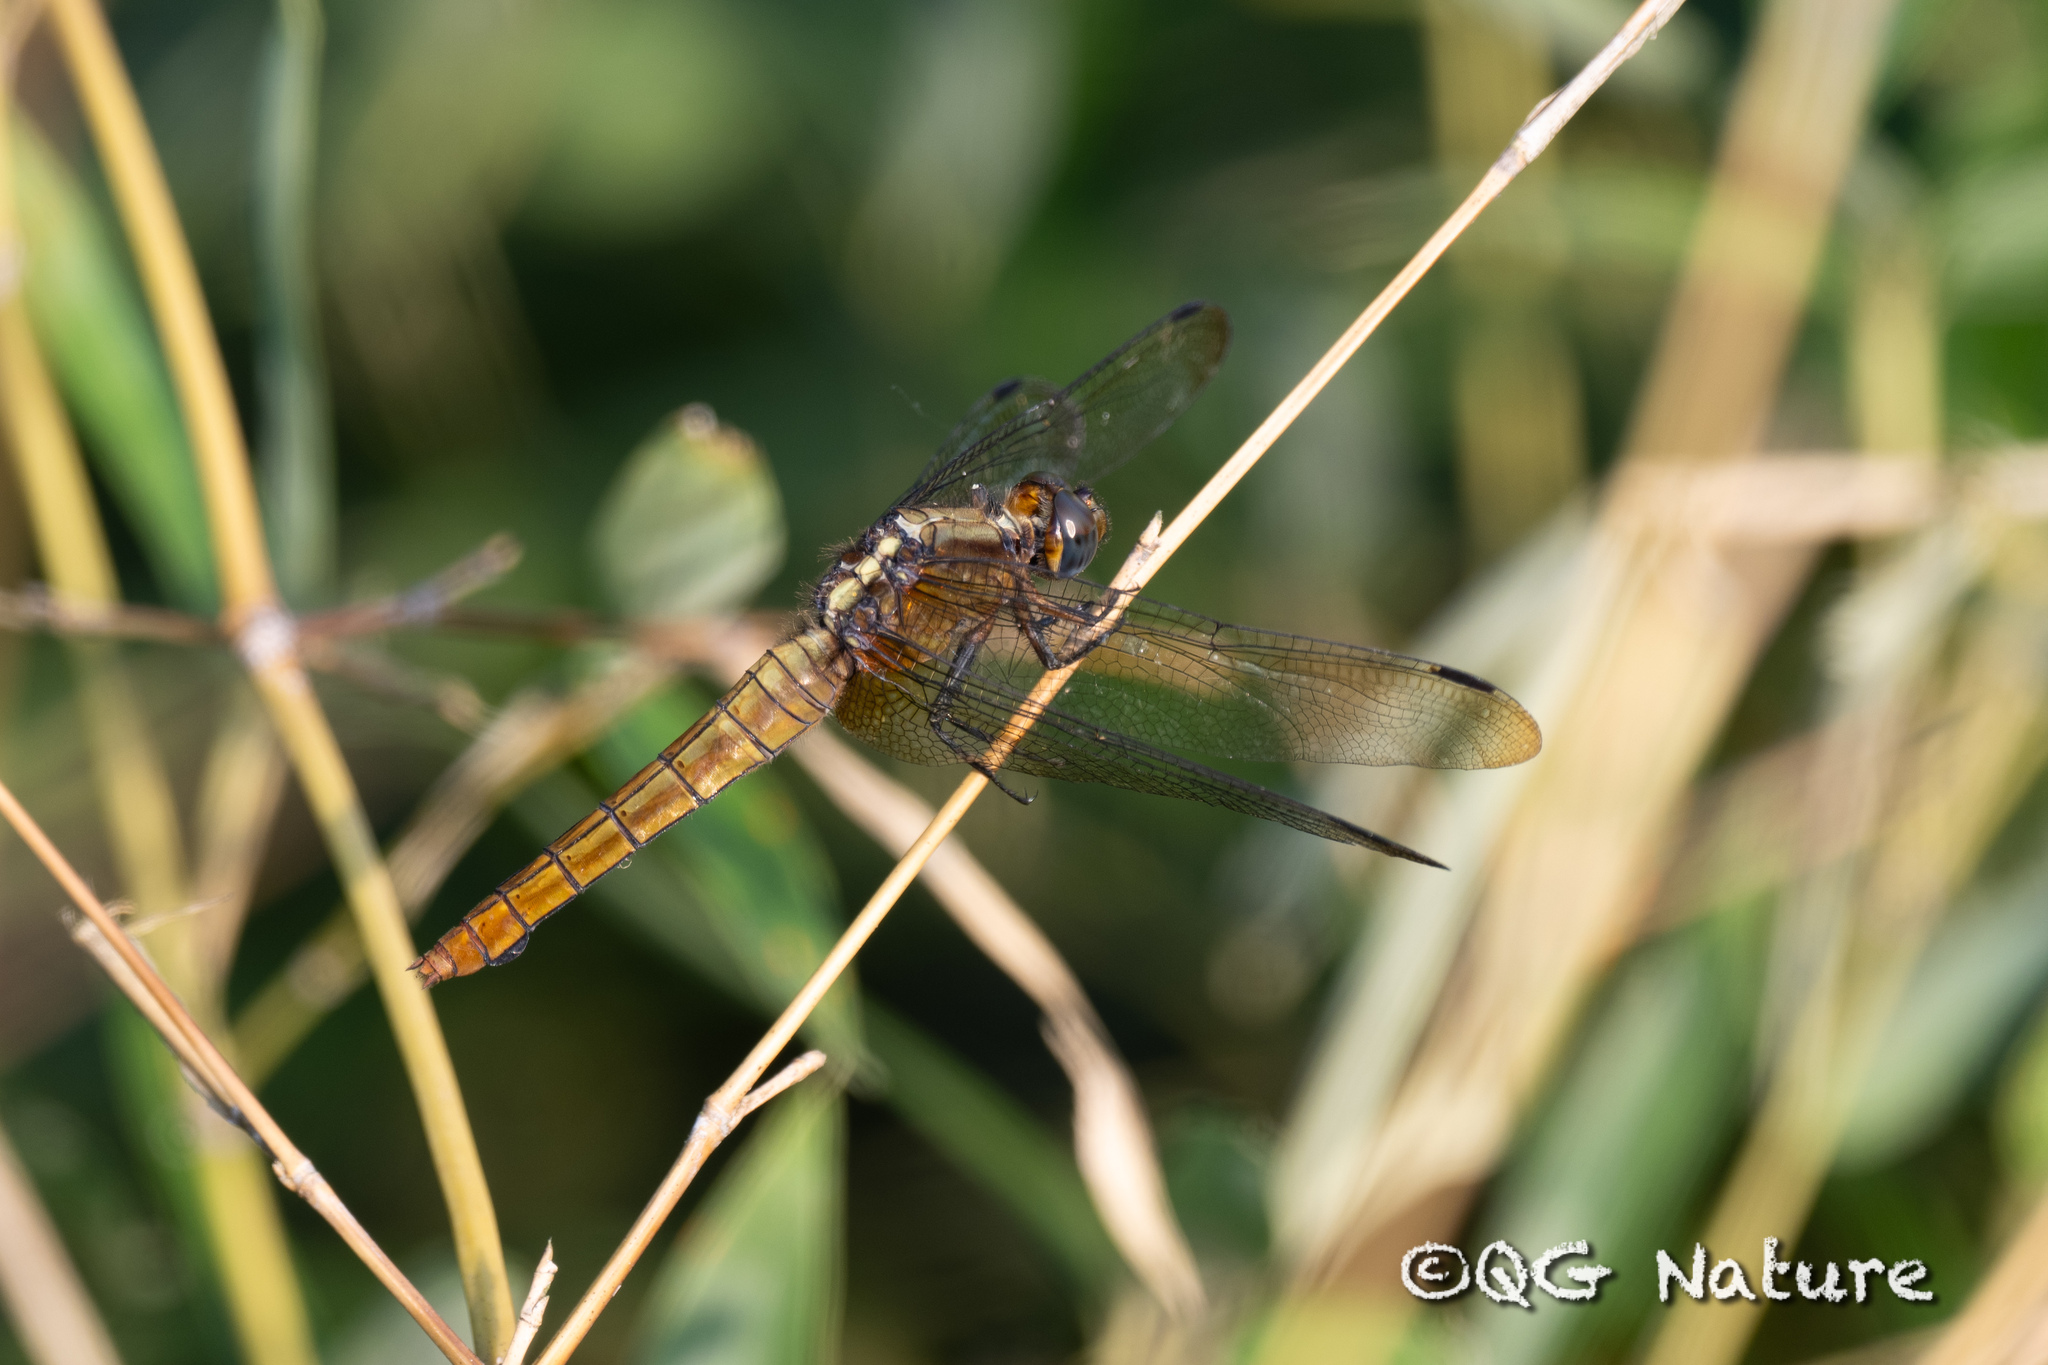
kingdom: Animalia
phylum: Arthropoda
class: Insecta
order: Odonata
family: Libellulidae
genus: Orthetrum
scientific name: Orthetrum pruinosum
